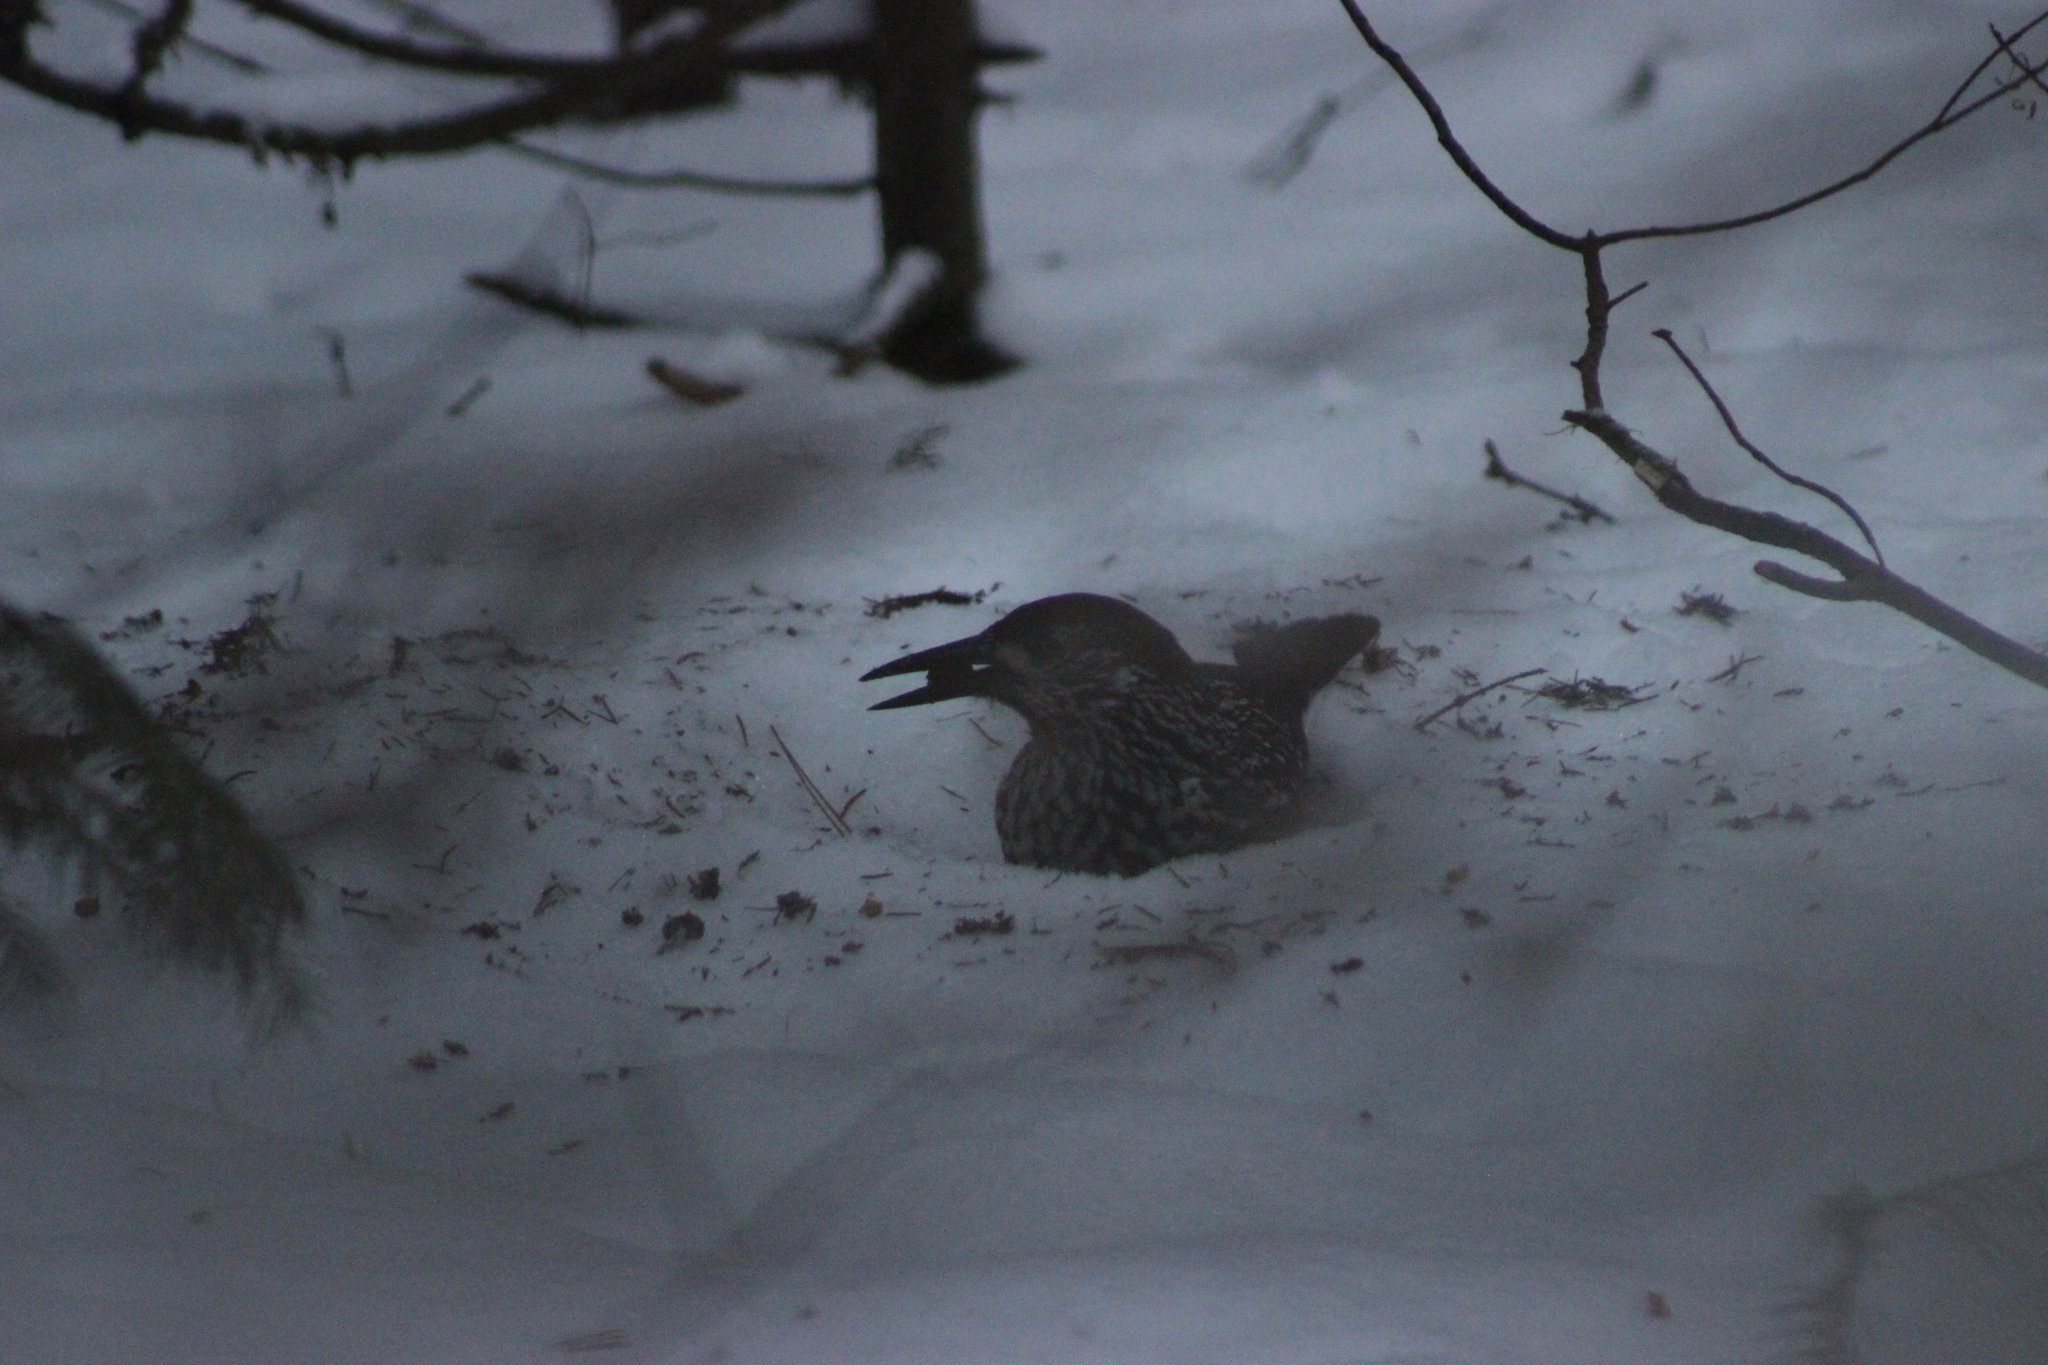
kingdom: Animalia
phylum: Chordata
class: Aves
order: Passeriformes
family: Corvidae
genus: Nucifraga
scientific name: Nucifraga caryocatactes
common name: Spotted nutcracker
